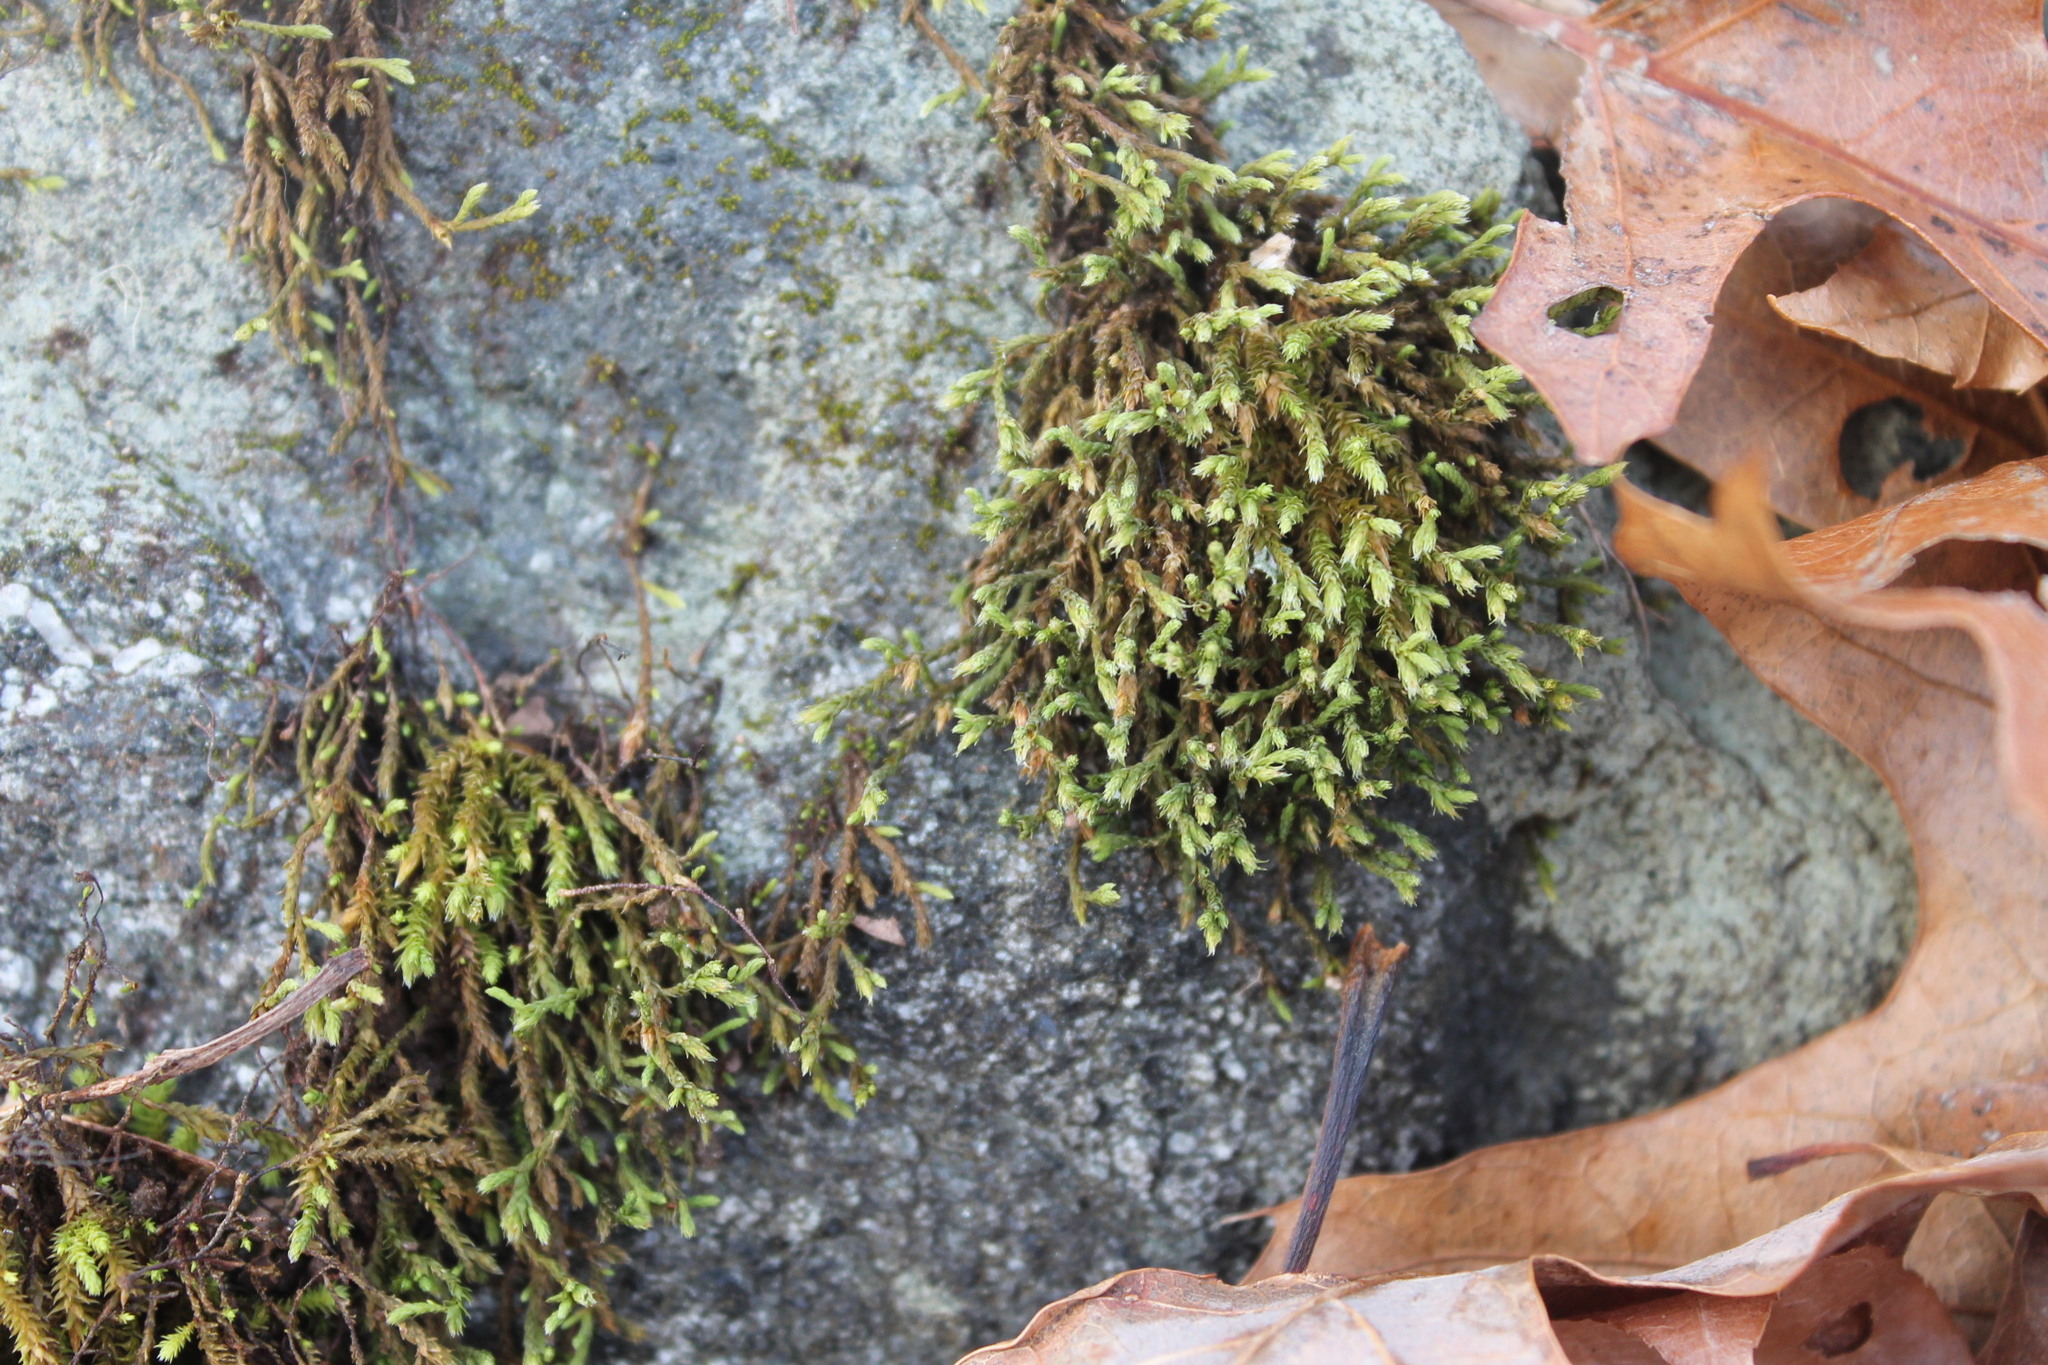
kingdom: Plantae
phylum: Bryophyta
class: Bryopsida
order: Hedwigiales
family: Hedwigiaceae
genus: Hedwigia
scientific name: Hedwigia ciliata
